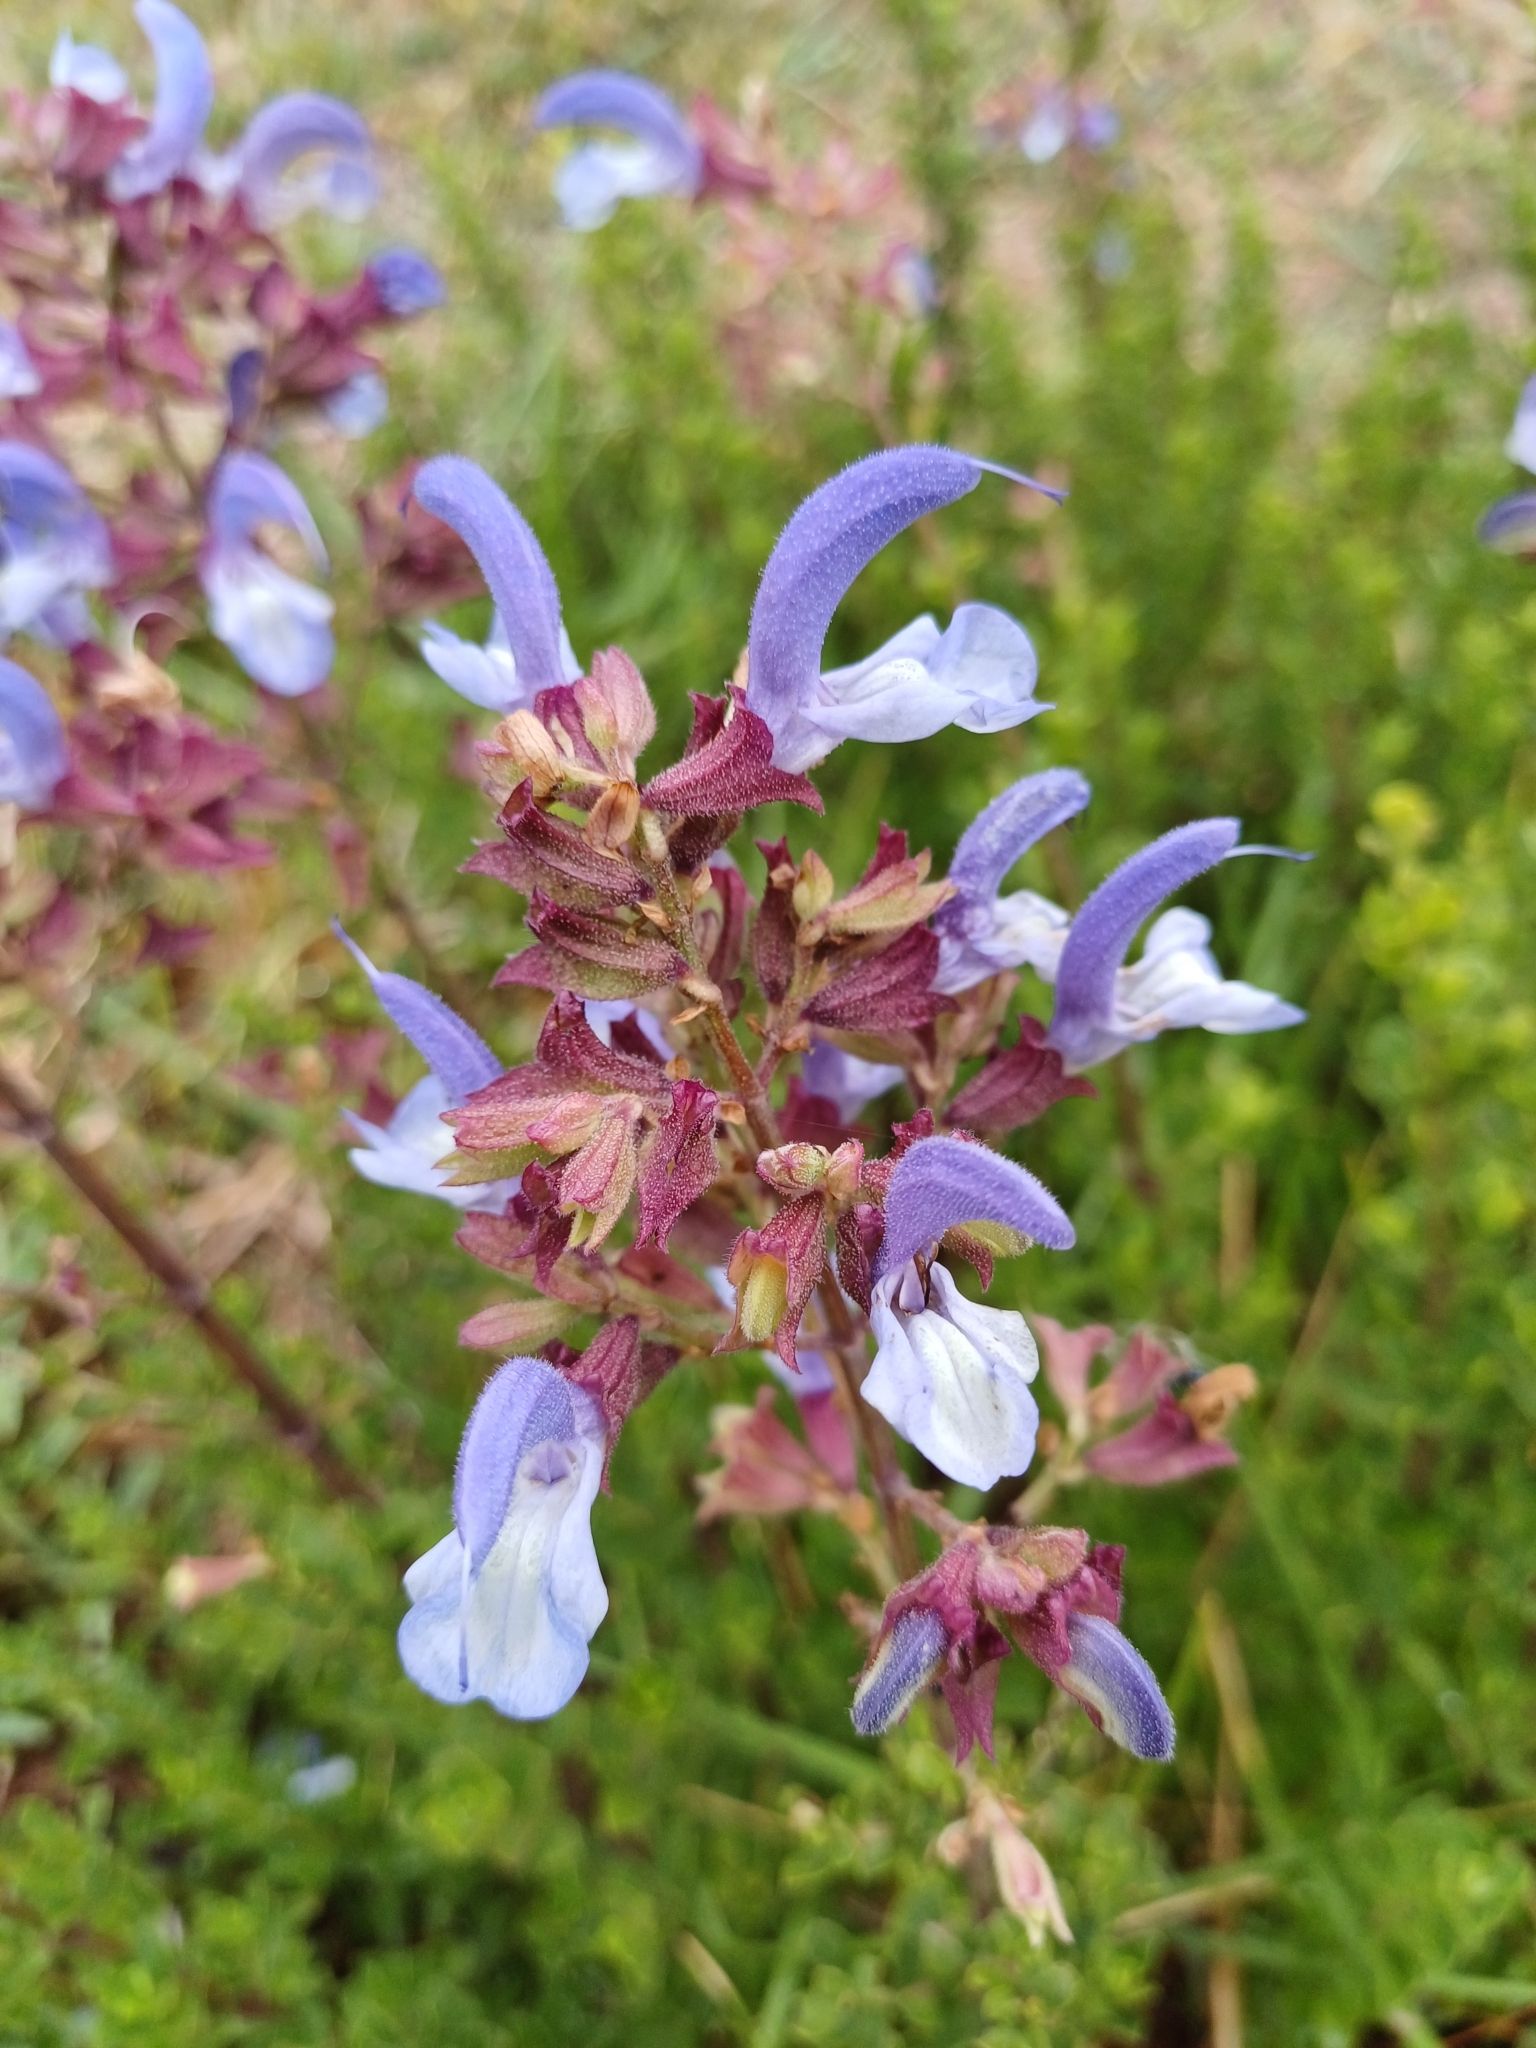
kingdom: Plantae
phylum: Tracheophyta
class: Magnoliopsida
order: Lamiales
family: Lamiaceae
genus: Salvia
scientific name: Salvia chamelaeagnea
